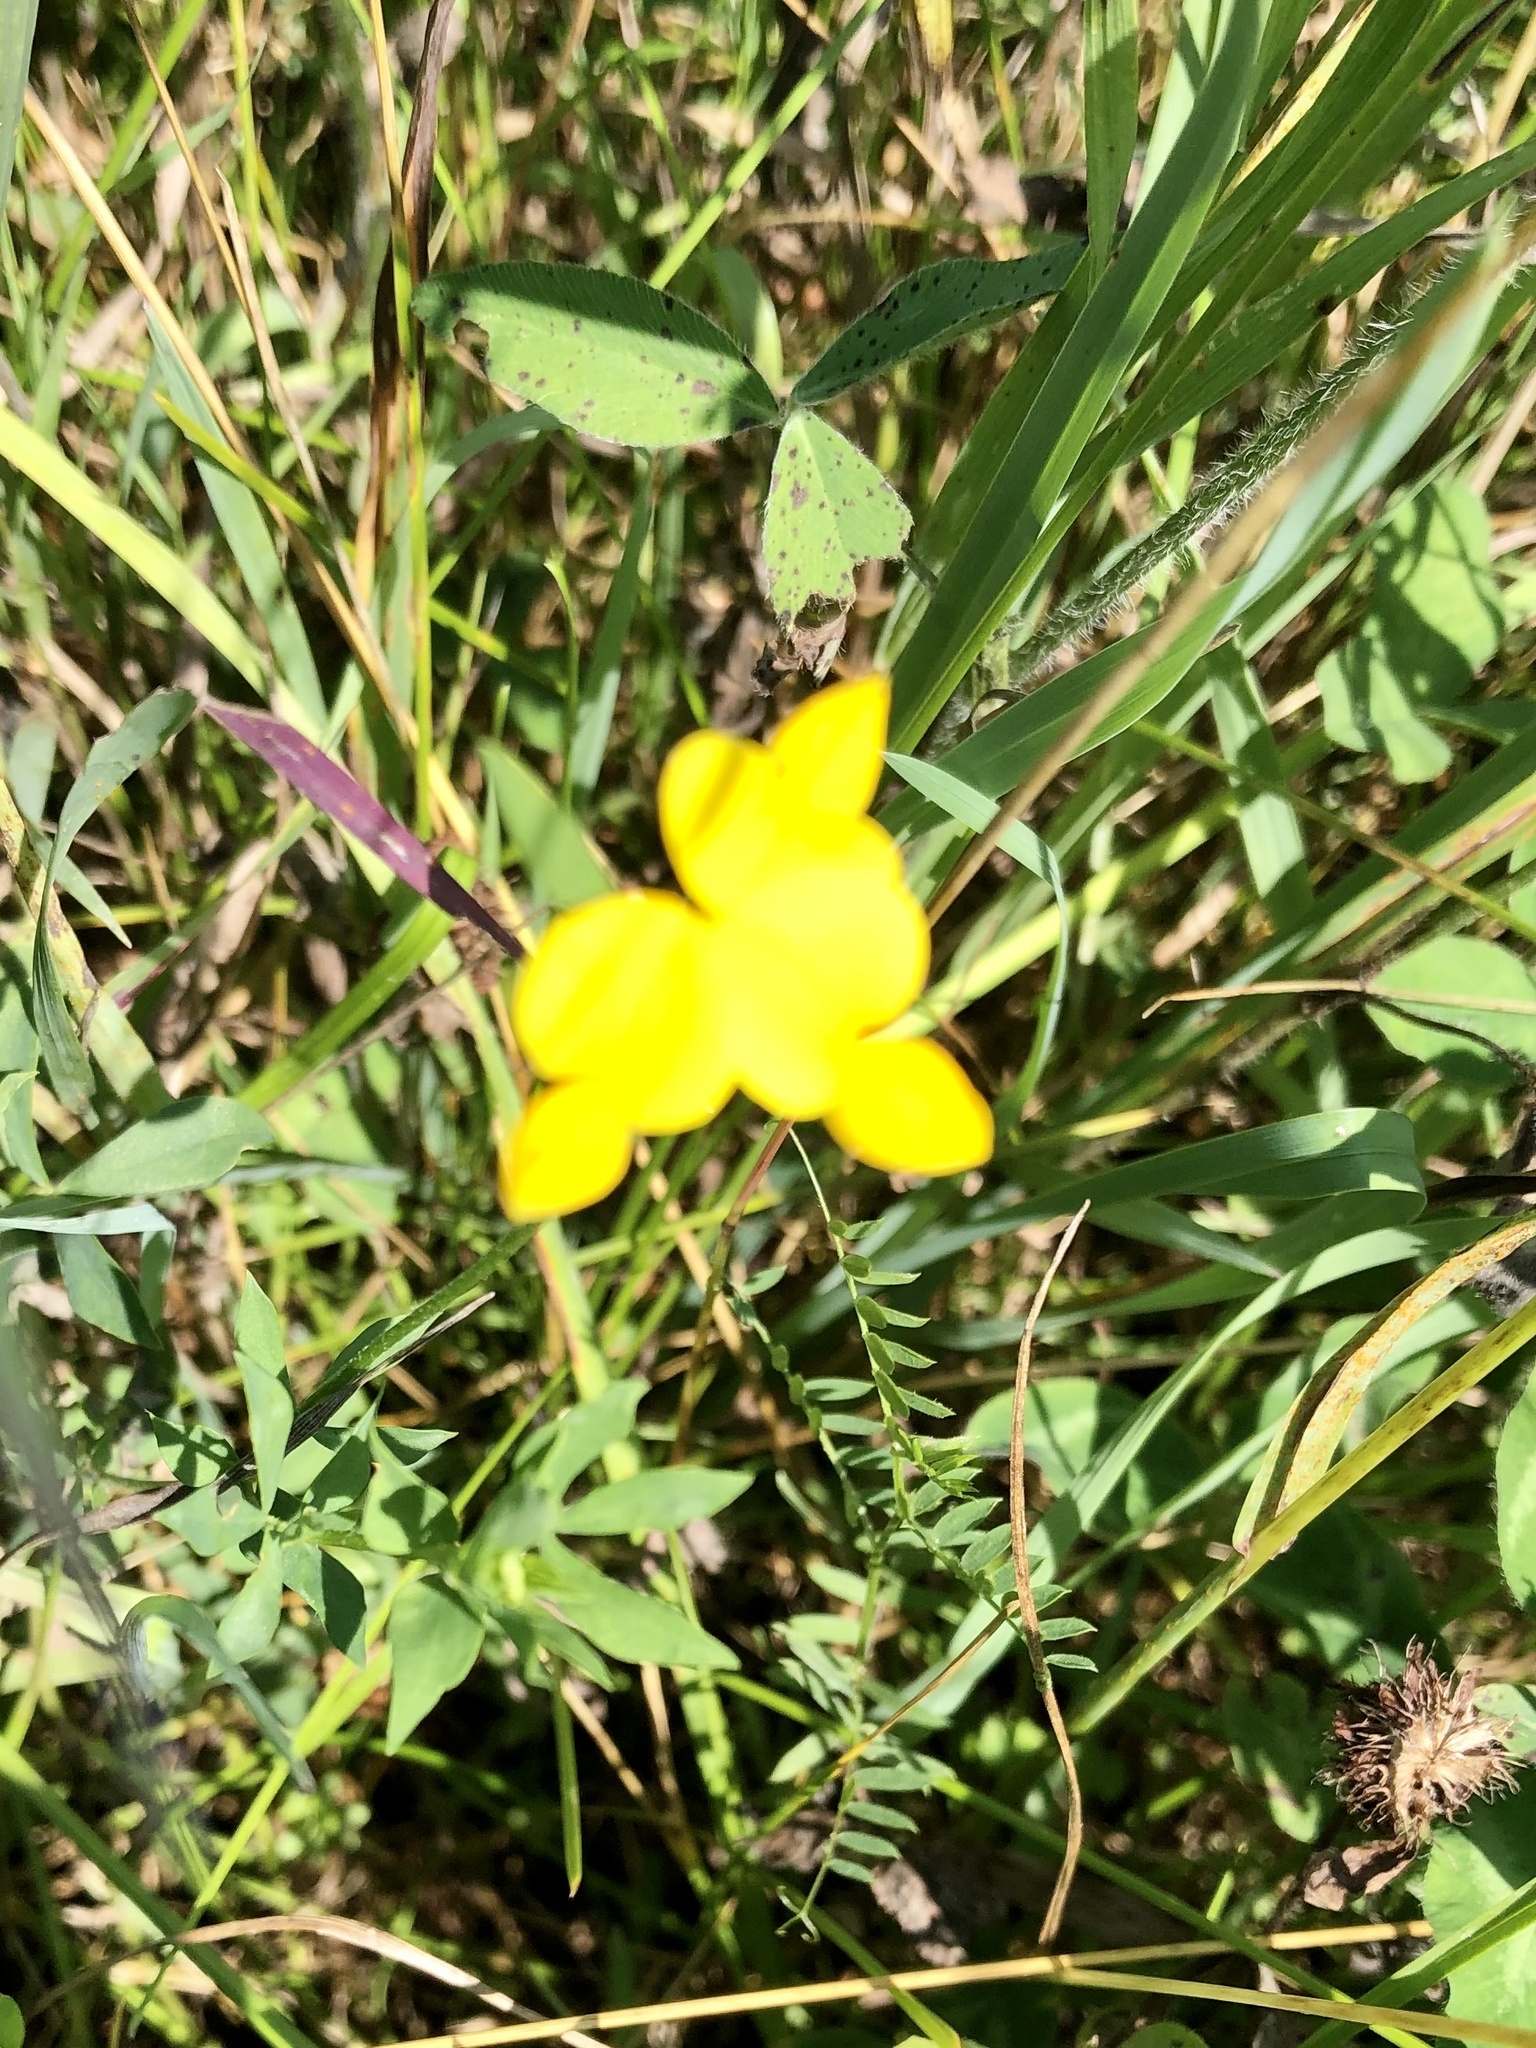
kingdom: Plantae
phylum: Tracheophyta
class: Magnoliopsida
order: Fabales
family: Fabaceae
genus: Lotus
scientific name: Lotus corniculatus
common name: Common bird's-foot-trefoil
